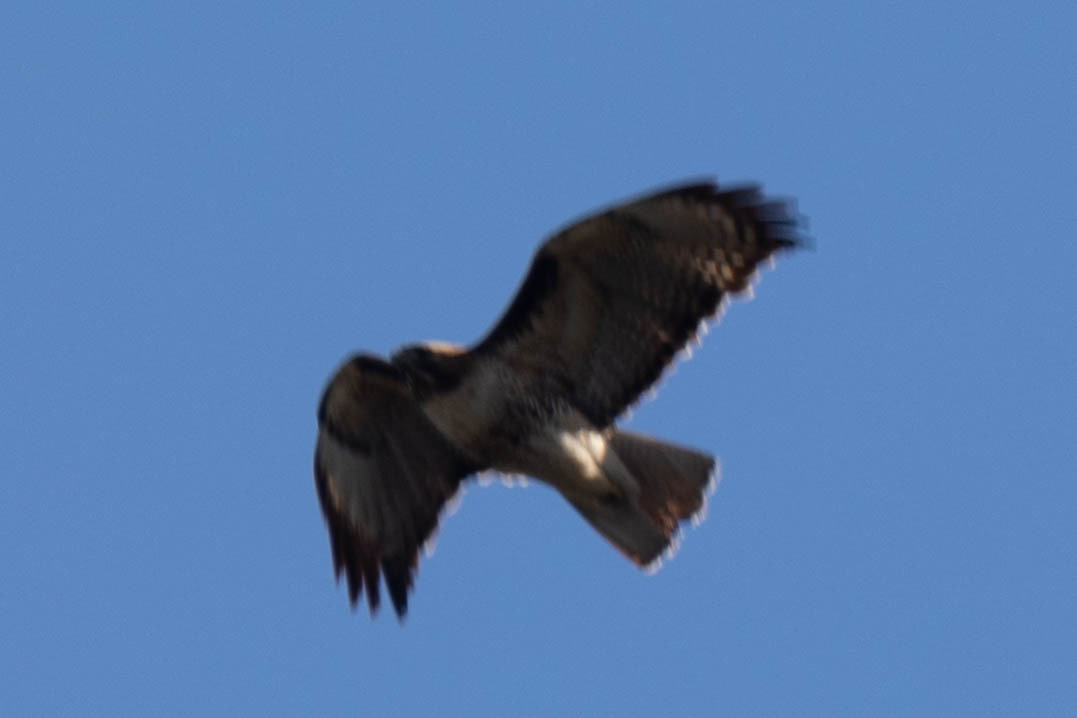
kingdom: Animalia
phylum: Chordata
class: Aves
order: Accipitriformes
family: Accipitridae
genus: Buteo
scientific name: Buteo jamaicensis
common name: Red-tailed hawk
